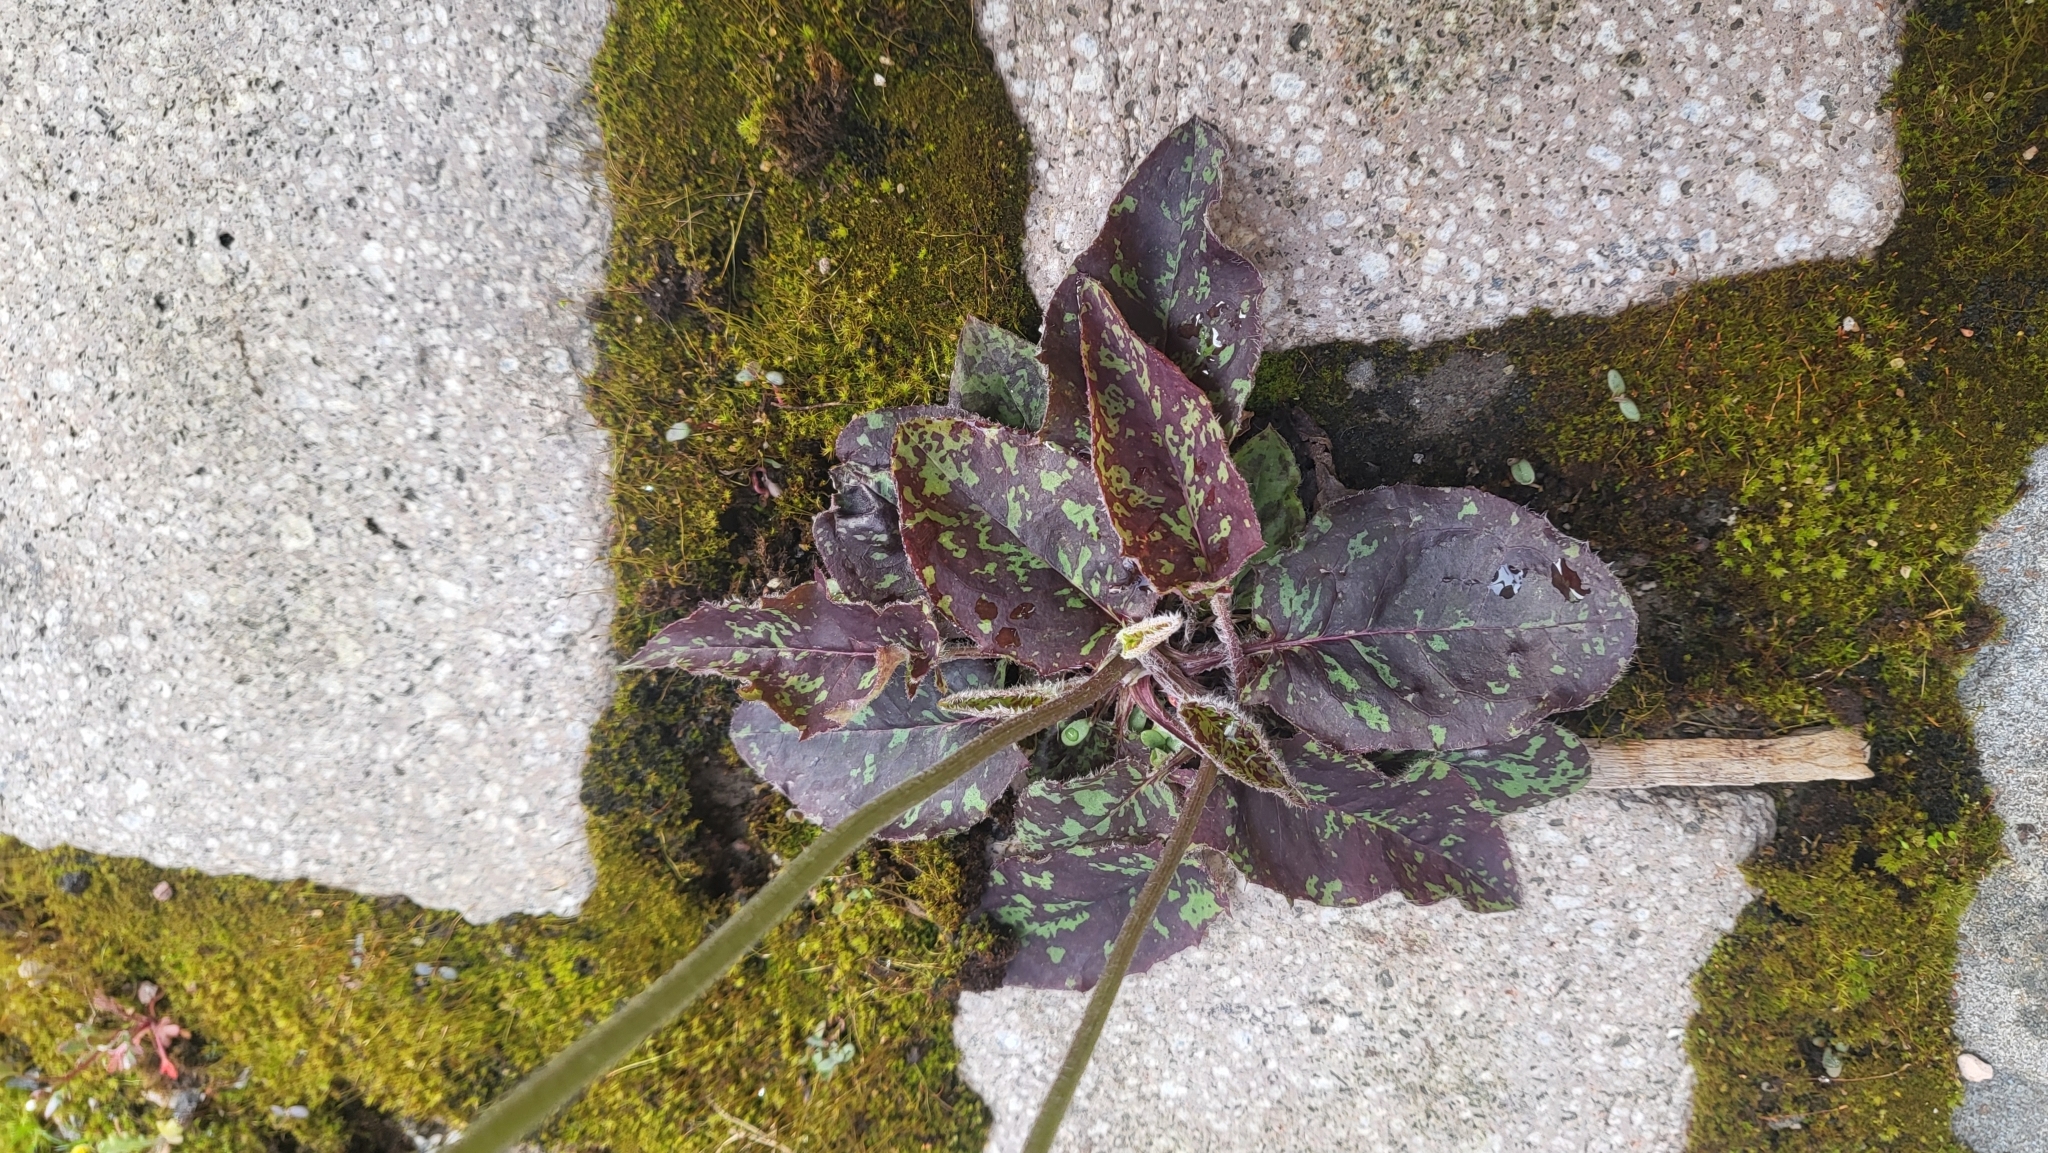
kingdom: Plantae
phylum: Tracheophyta
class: Magnoliopsida
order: Asterales
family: Asteraceae
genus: Hieracium
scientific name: Hieracium glaucinum
